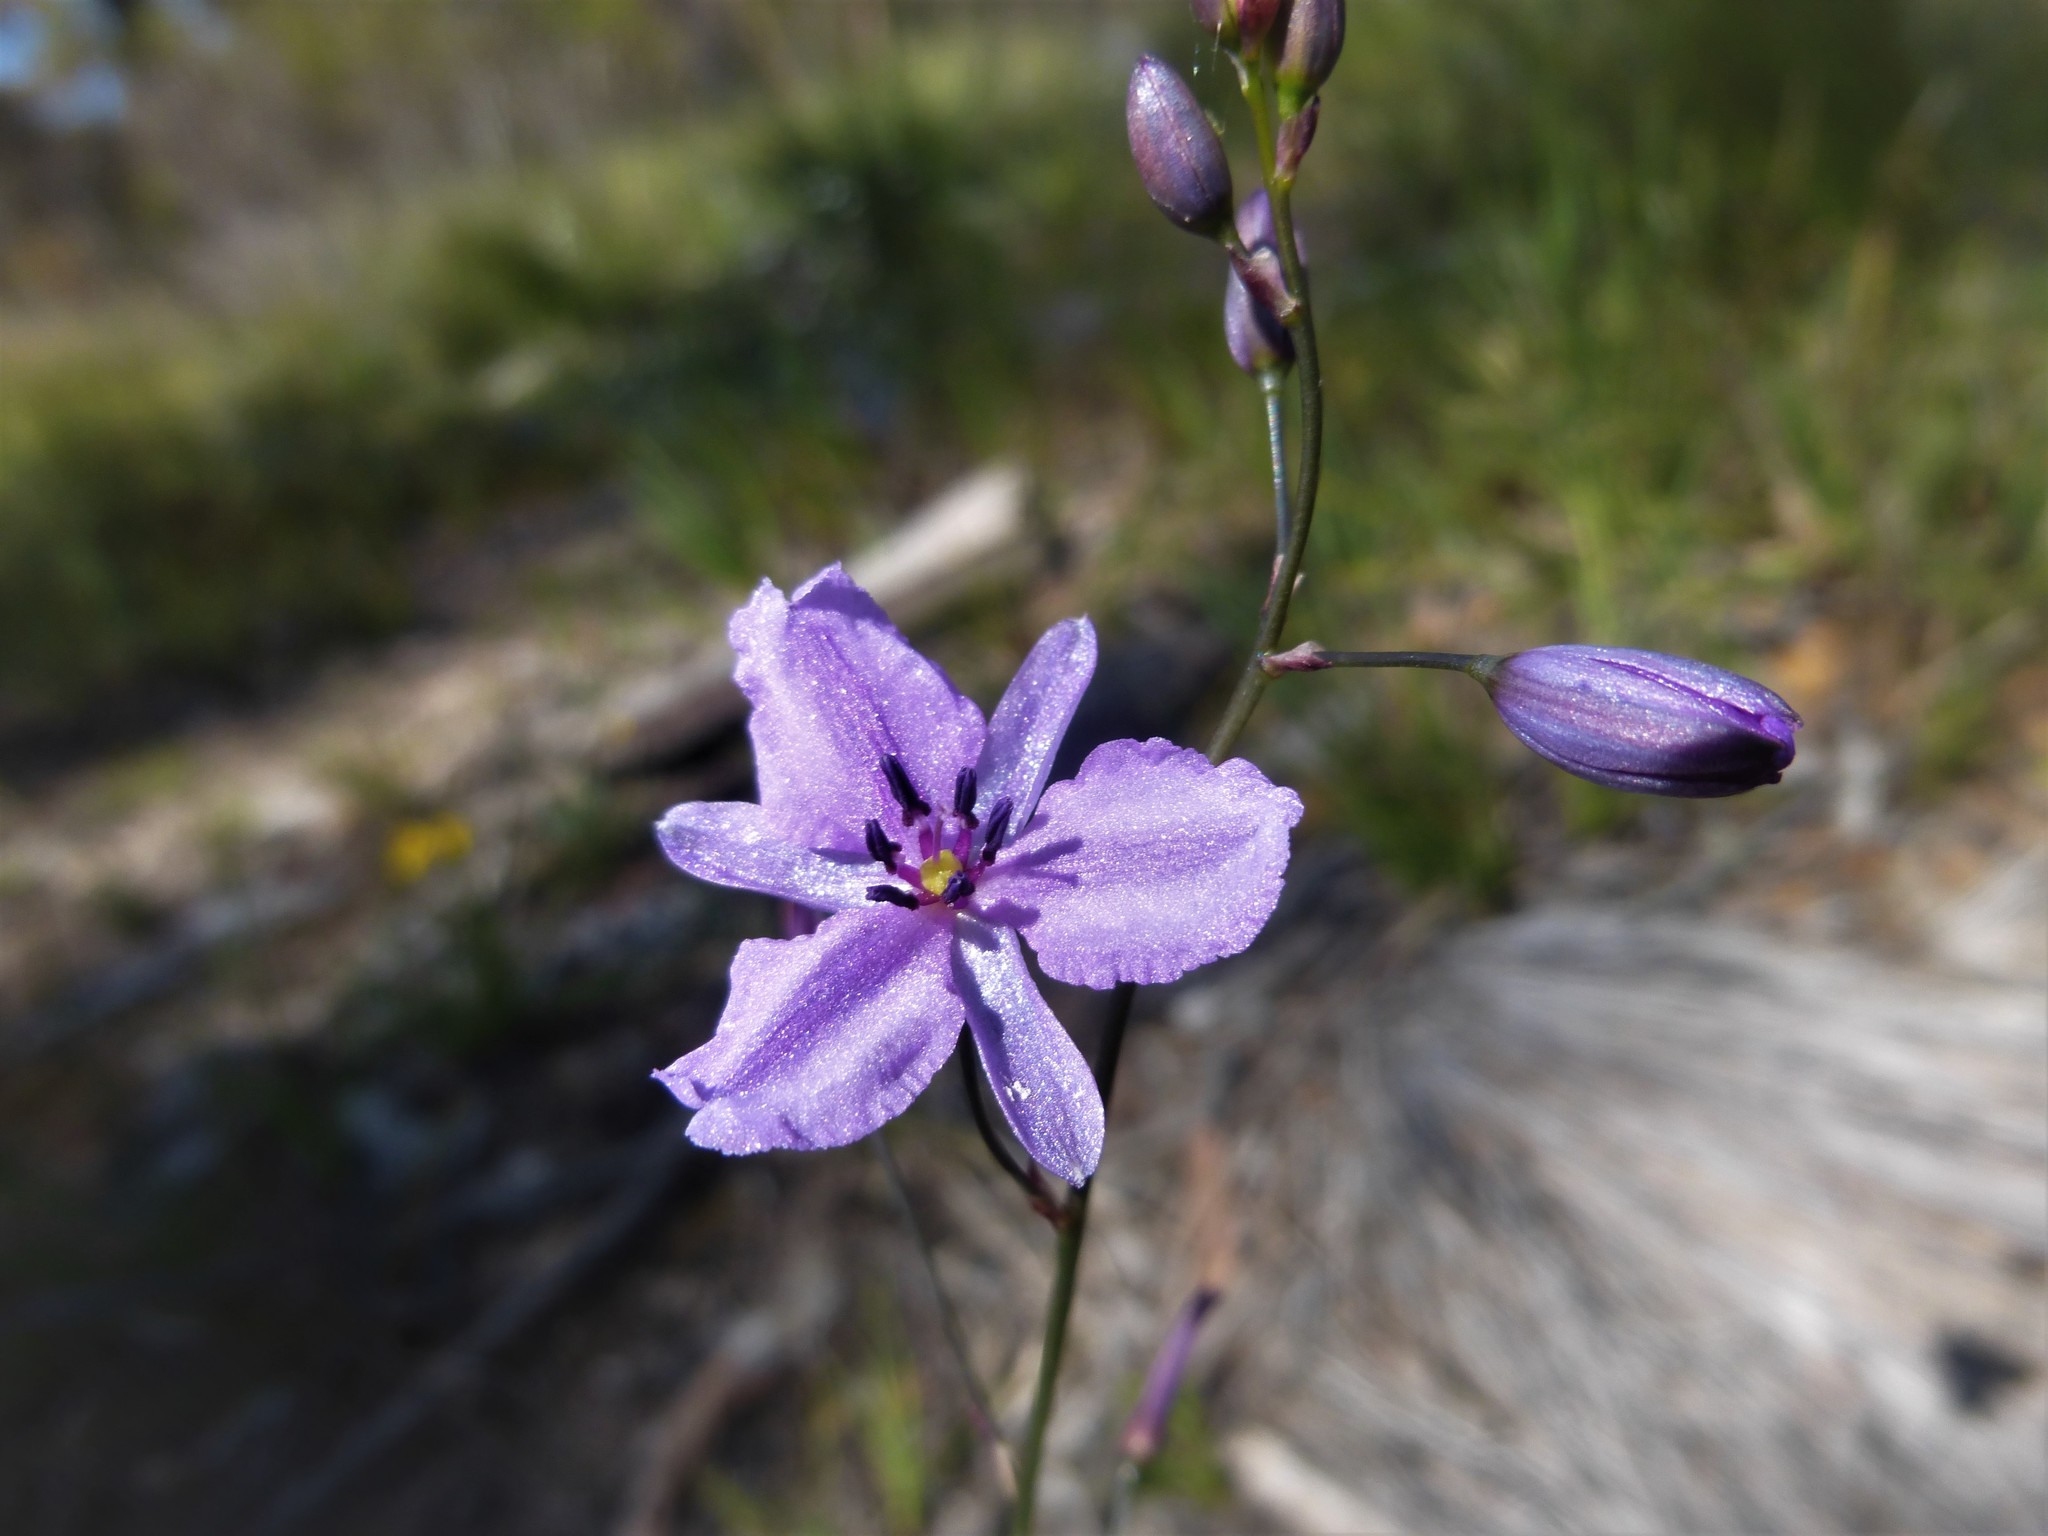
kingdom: Plantae
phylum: Tracheophyta
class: Liliopsida
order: Asparagales
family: Asparagaceae
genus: Arthropodium
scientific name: Arthropodium strictum
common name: Chocolate-lily
